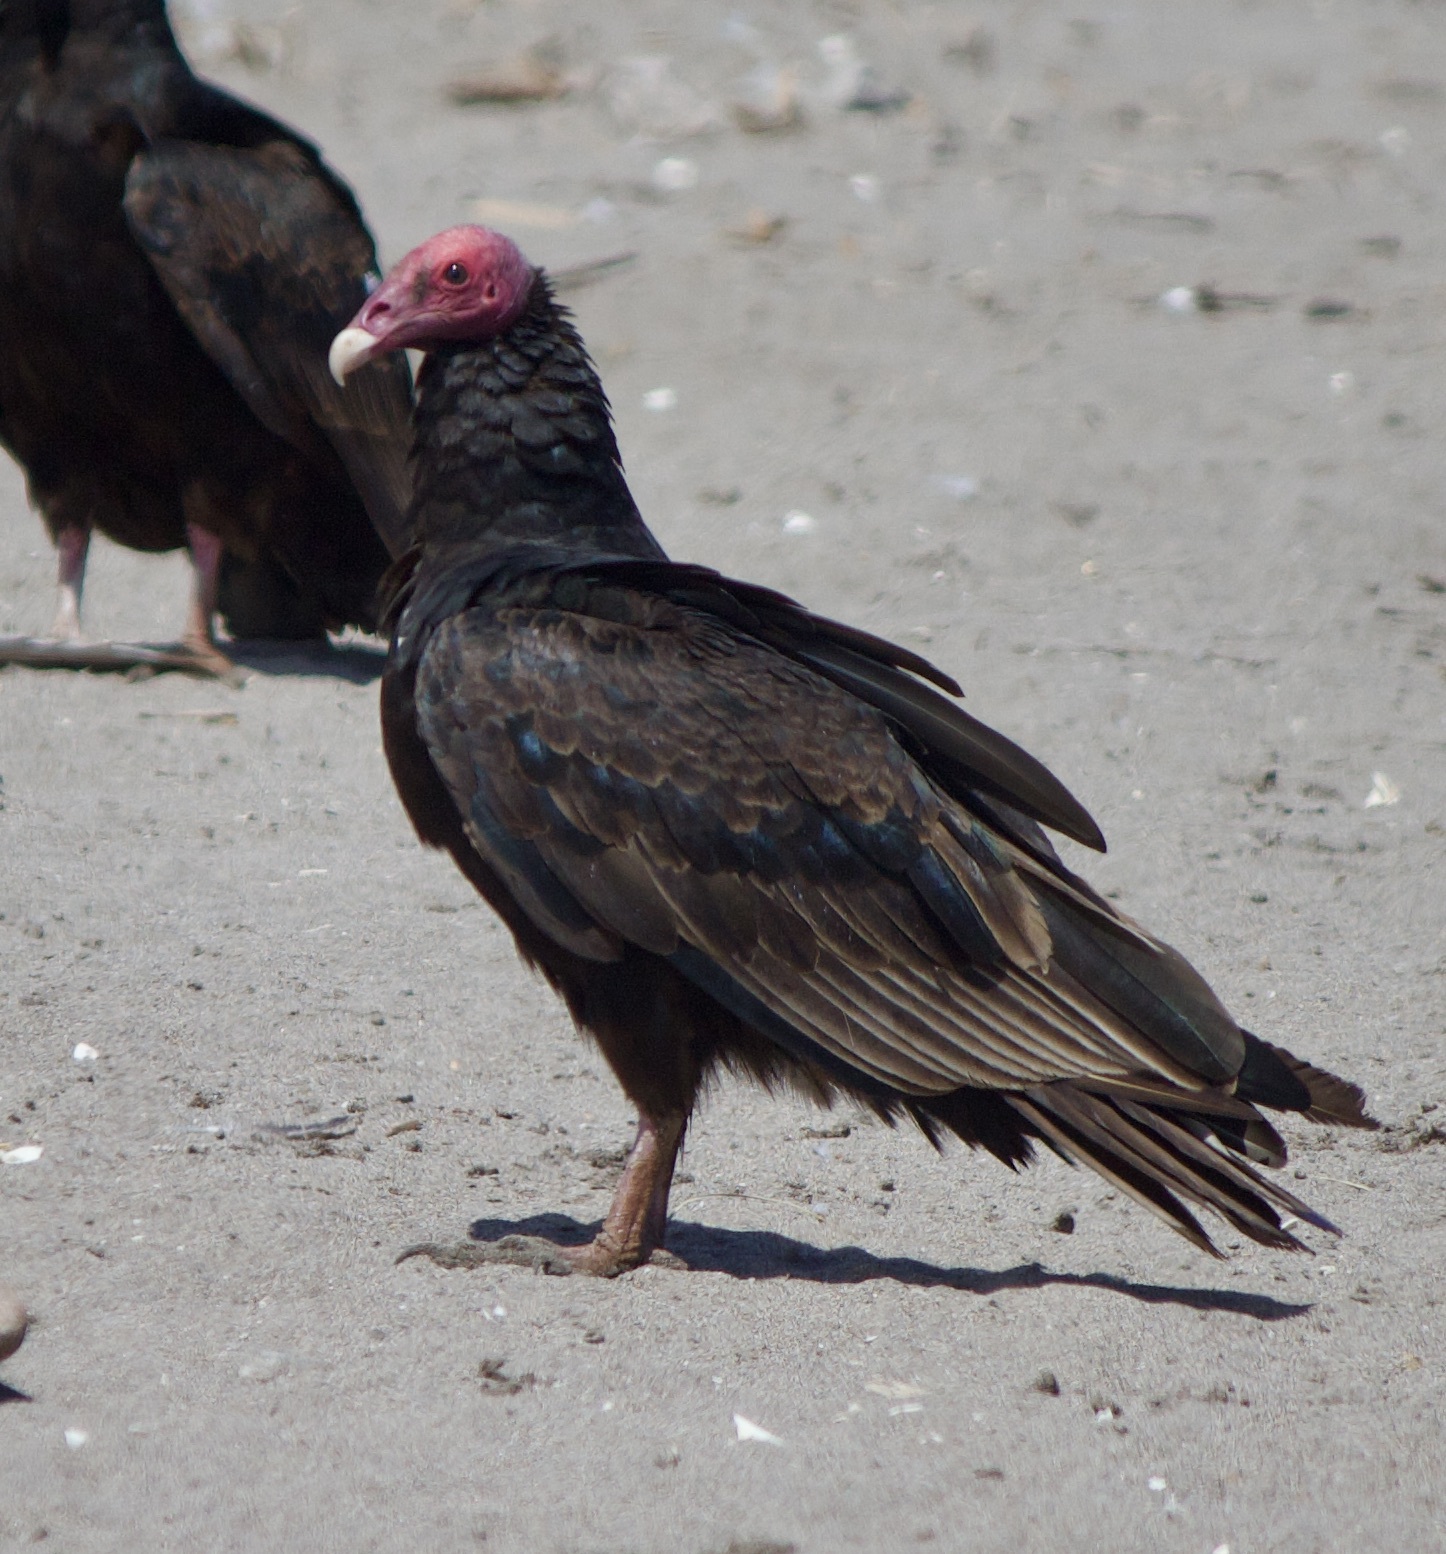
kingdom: Animalia
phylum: Chordata
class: Aves
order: Accipitriformes
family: Cathartidae
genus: Cathartes
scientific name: Cathartes aura
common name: Turkey vulture
